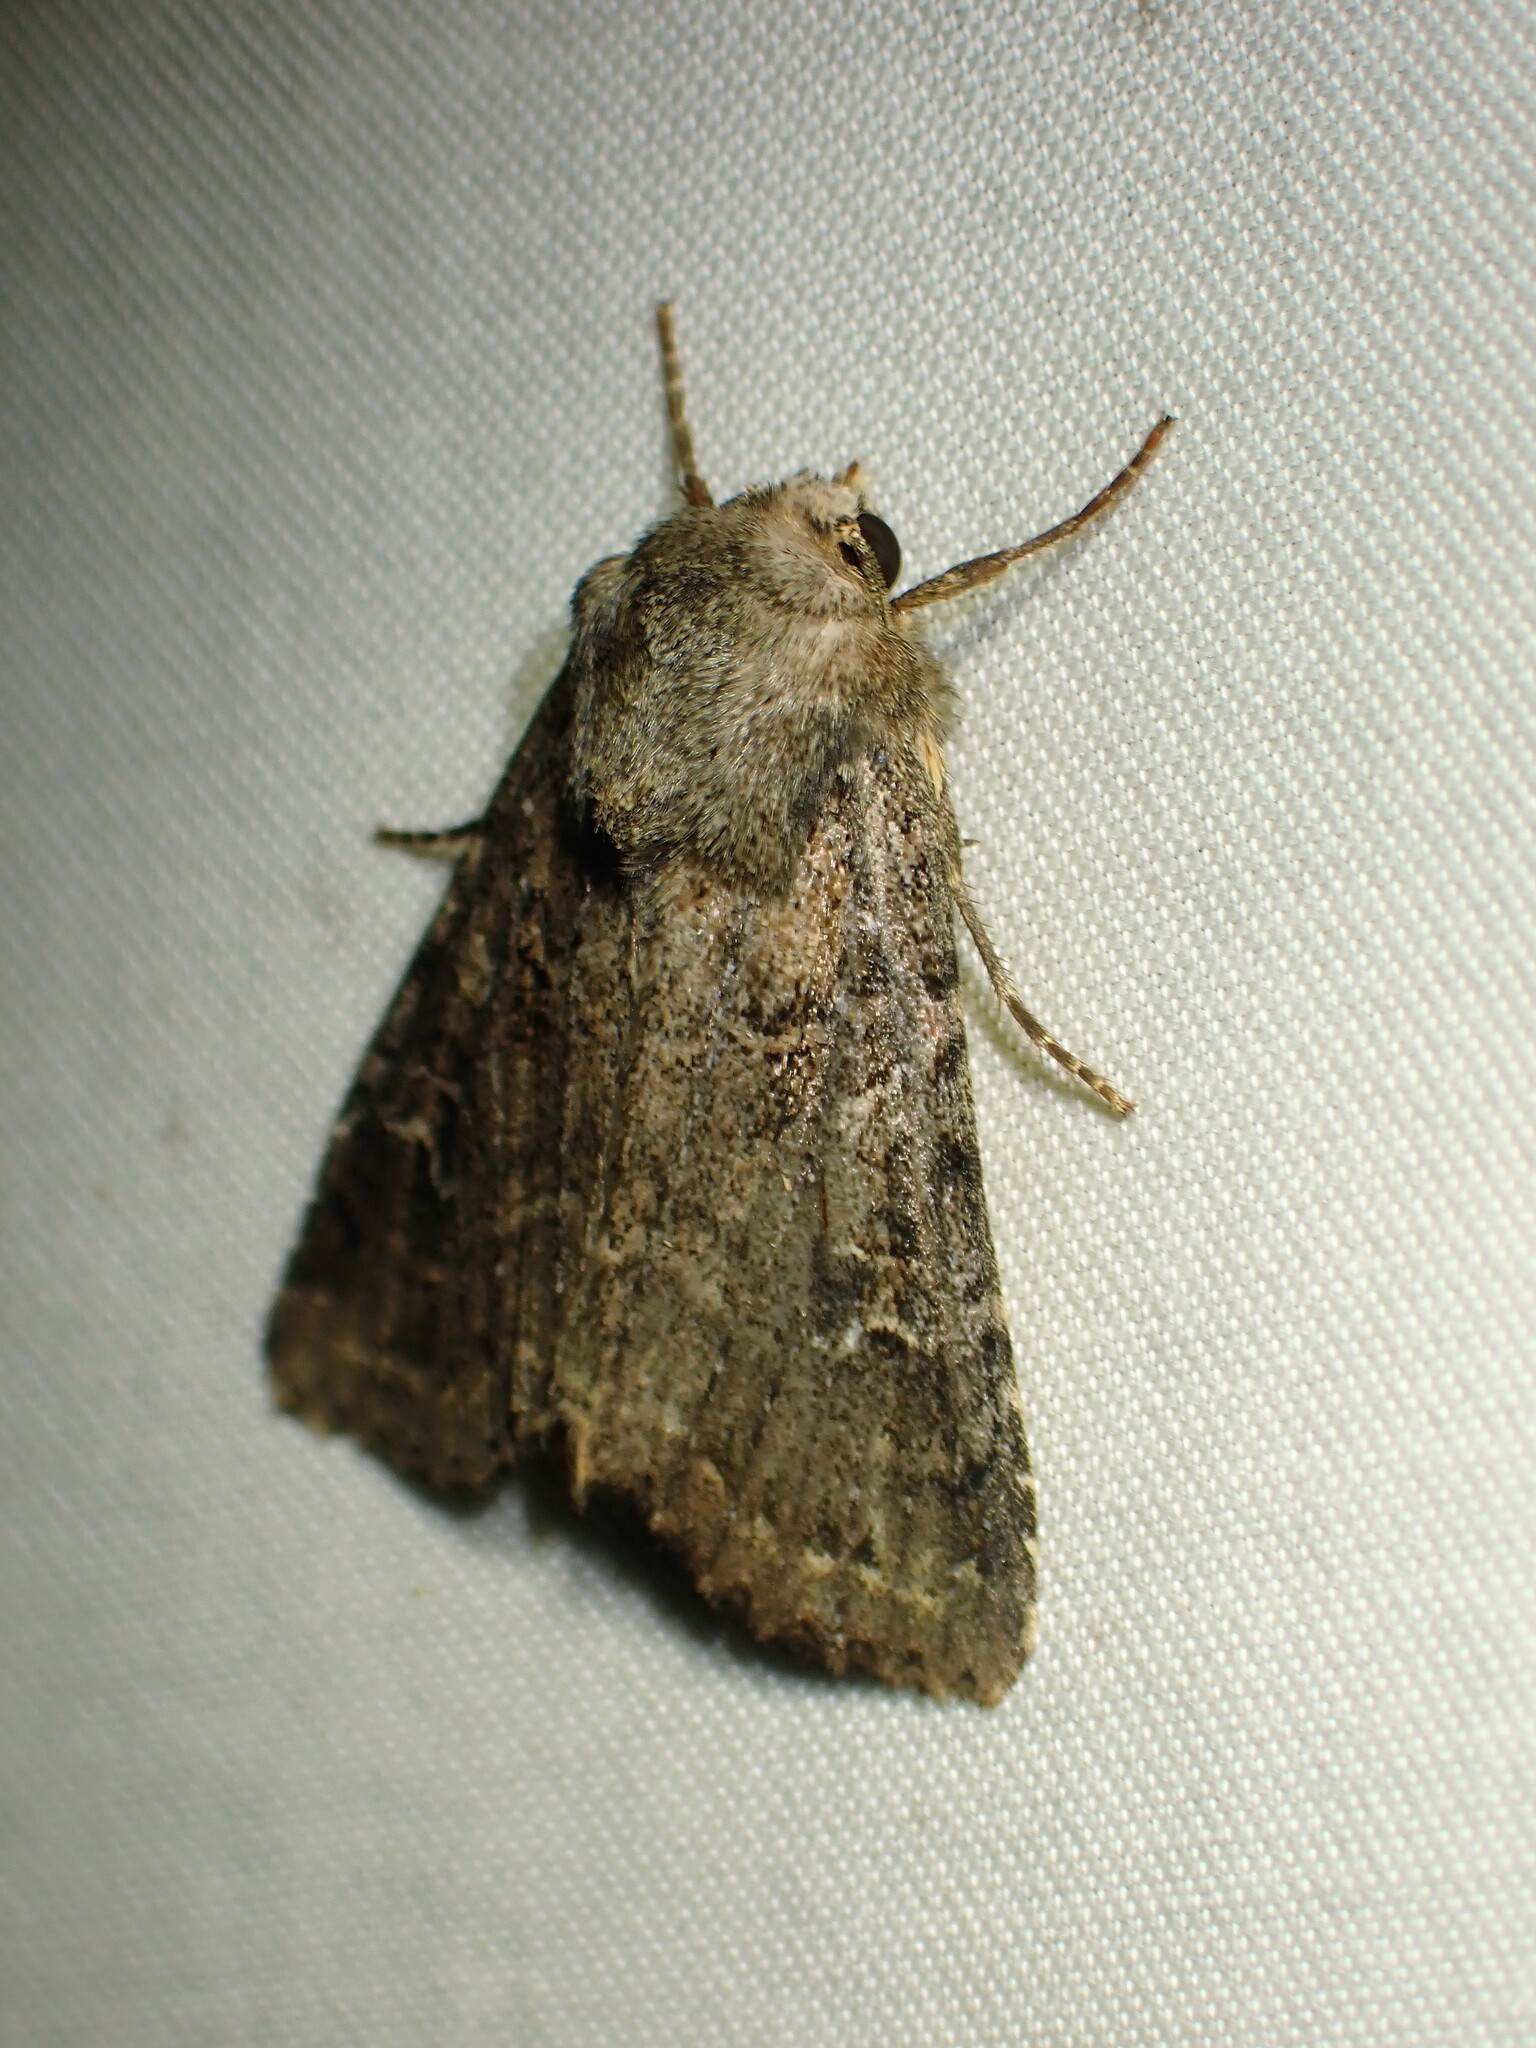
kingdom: Animalia
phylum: Arthropoda
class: Insecta
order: Lepidoptera
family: Noctuidae
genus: Apamea
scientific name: Apamea devastator
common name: Glassy cutworm
